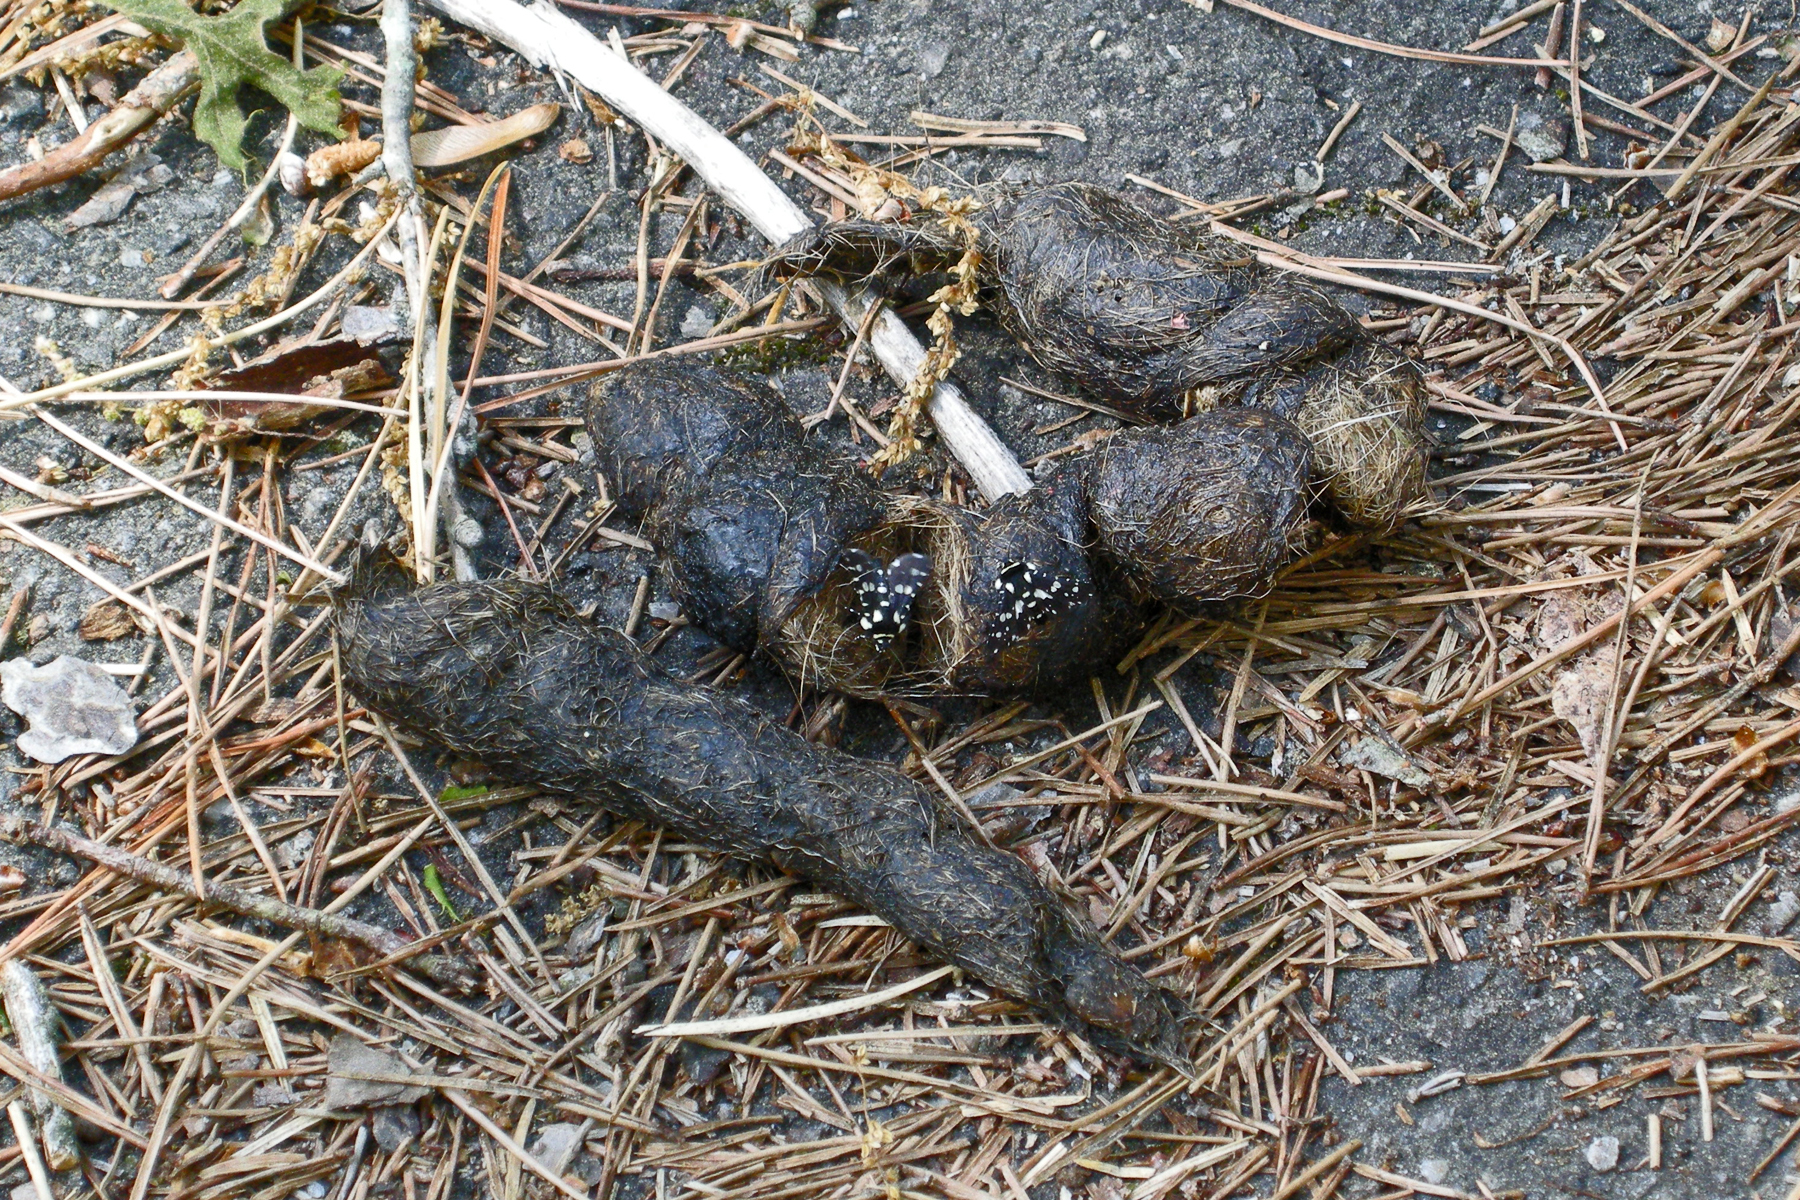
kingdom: Animalia
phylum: Chordata
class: Mammalia
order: Carnivora
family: Canidae
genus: Canis
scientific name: Canis latrans
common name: Coyote
